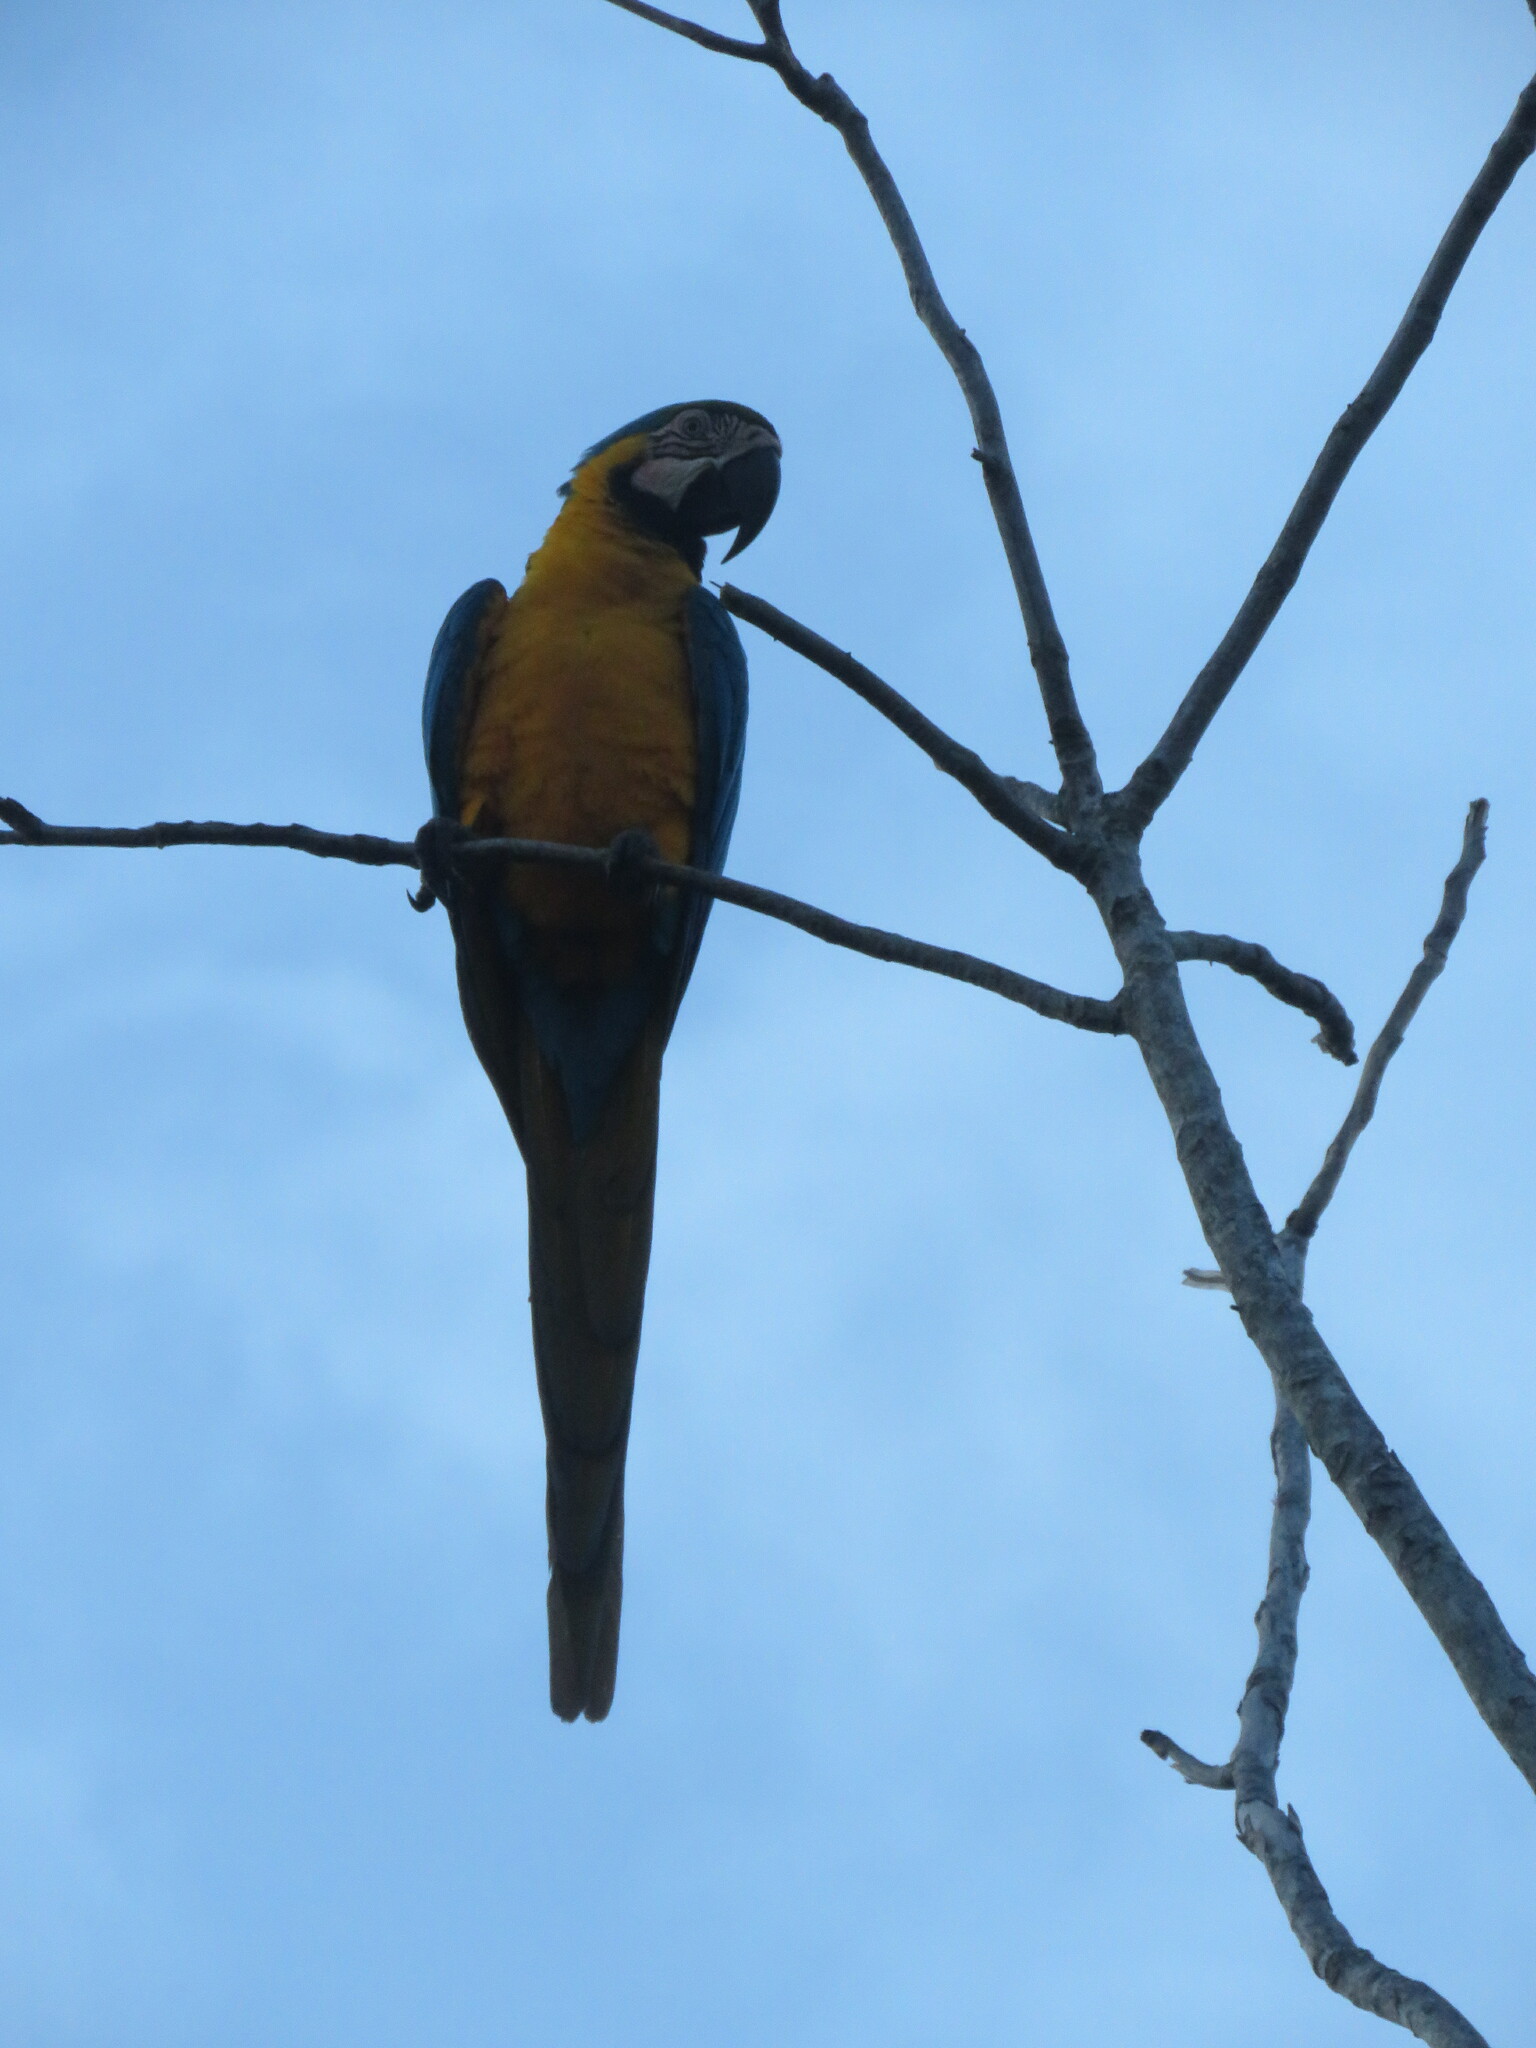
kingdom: Animalia
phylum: Chordata
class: Aves
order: Psittaciformes
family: Psittacidae
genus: Ara
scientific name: Ara ararauna
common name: Blue-and-yellow macaw
